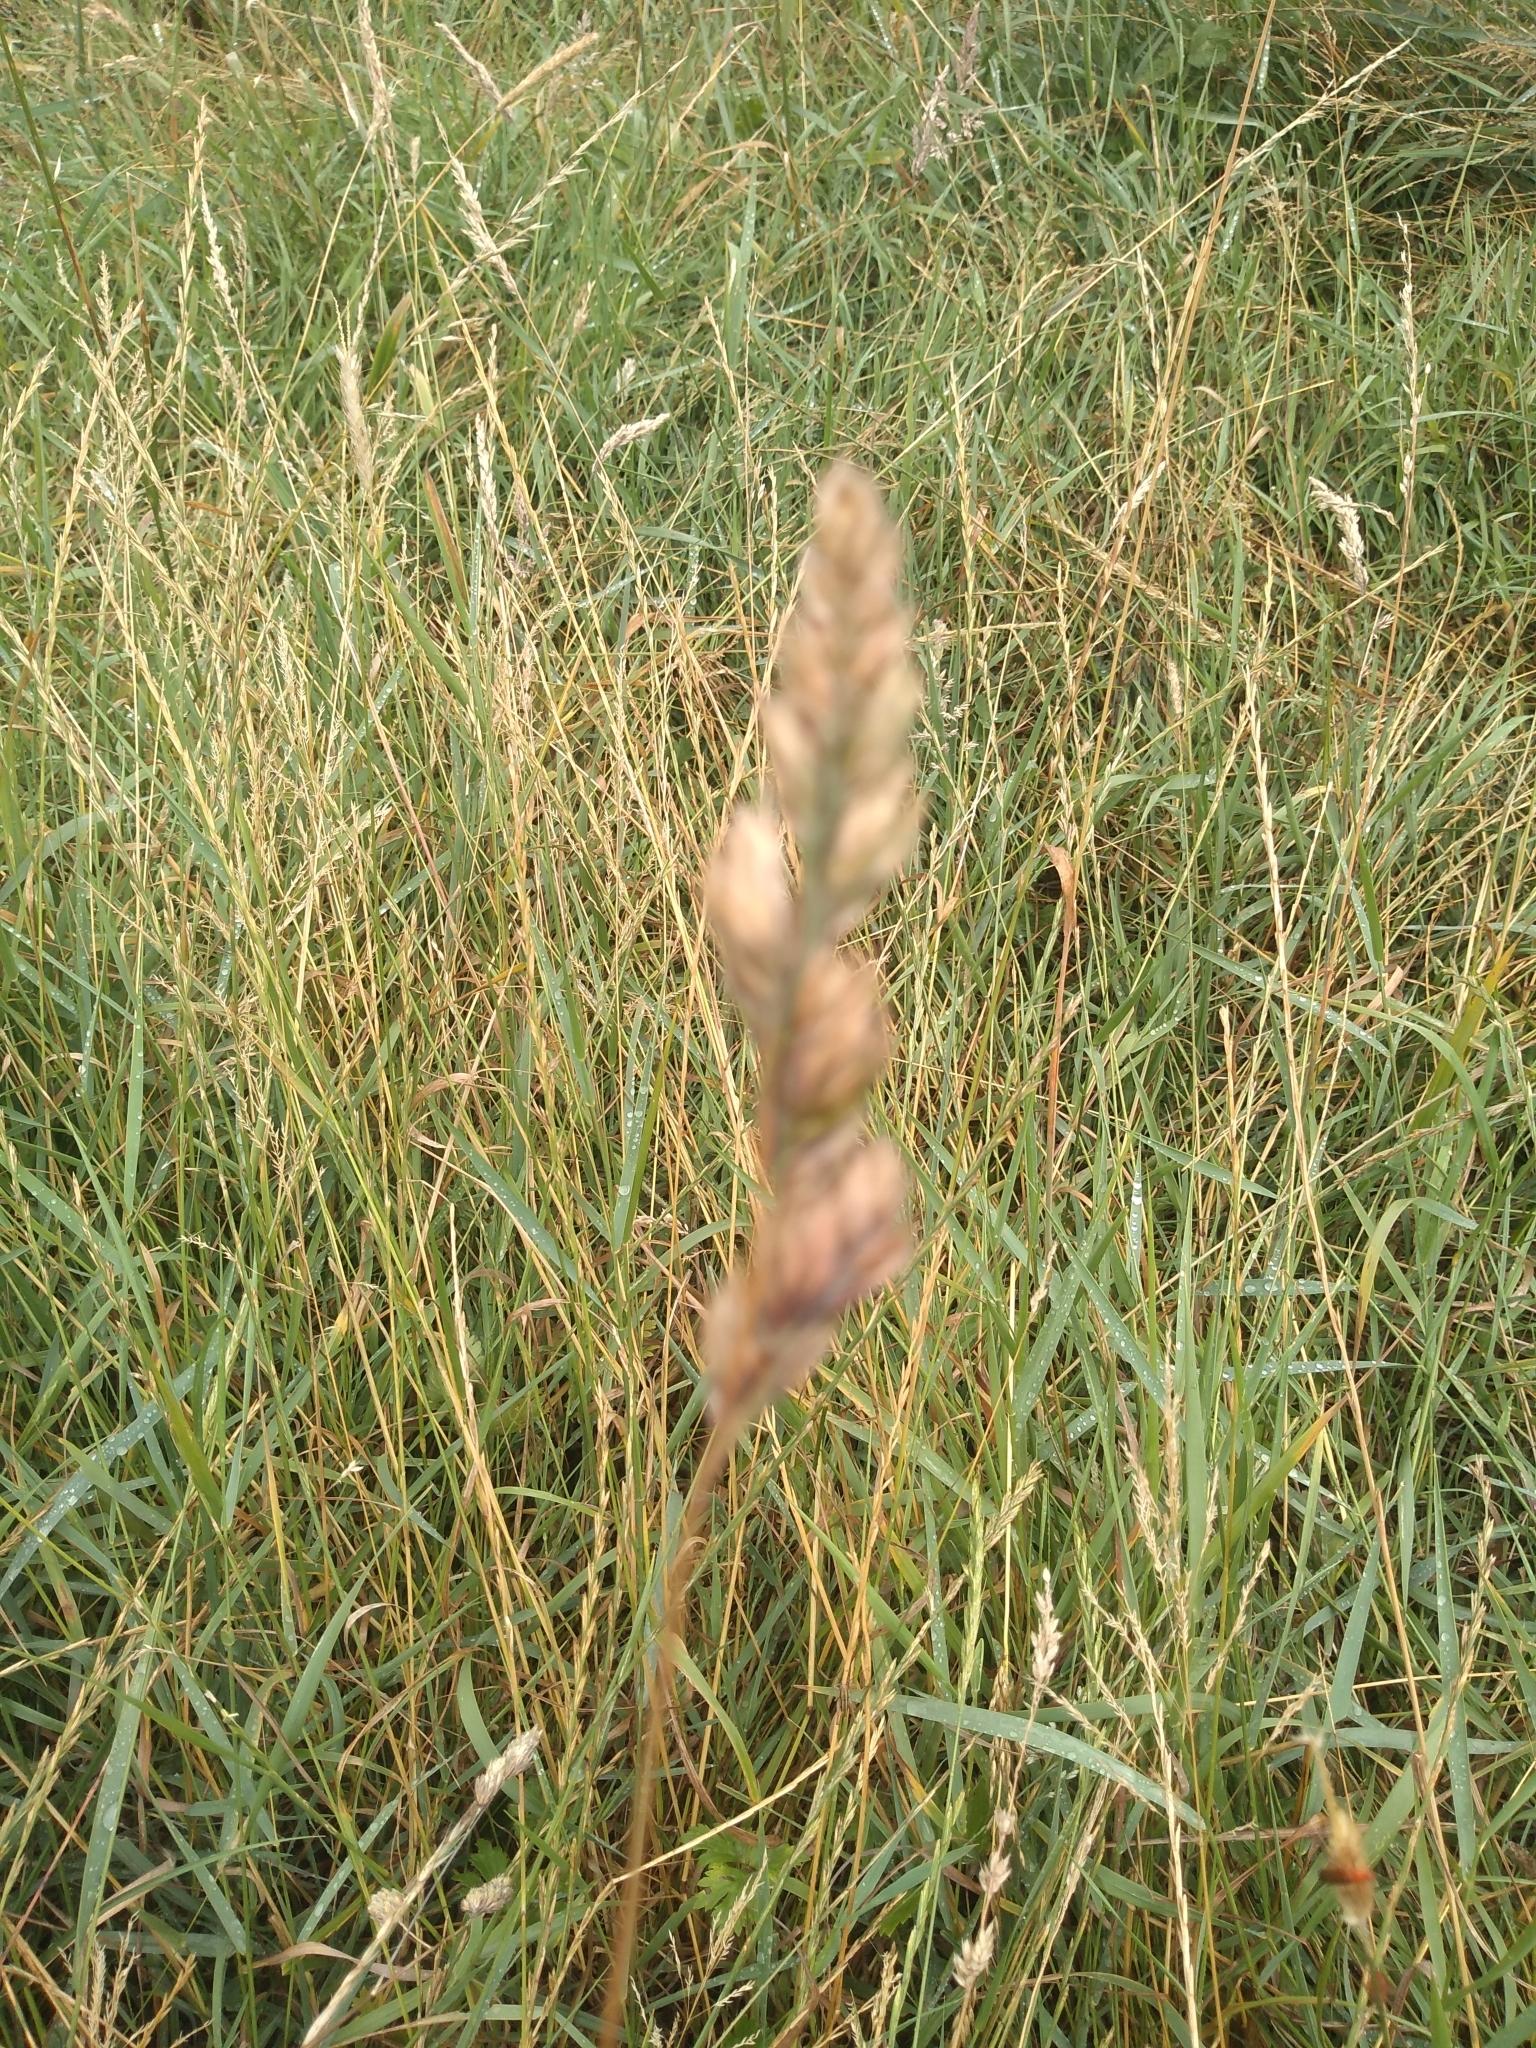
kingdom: Plantae
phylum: Tracheophyta
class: Liliopsida
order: Poales
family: Poaceae
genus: Dactylis
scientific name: Dactylis glomerata
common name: Orchardgrass
